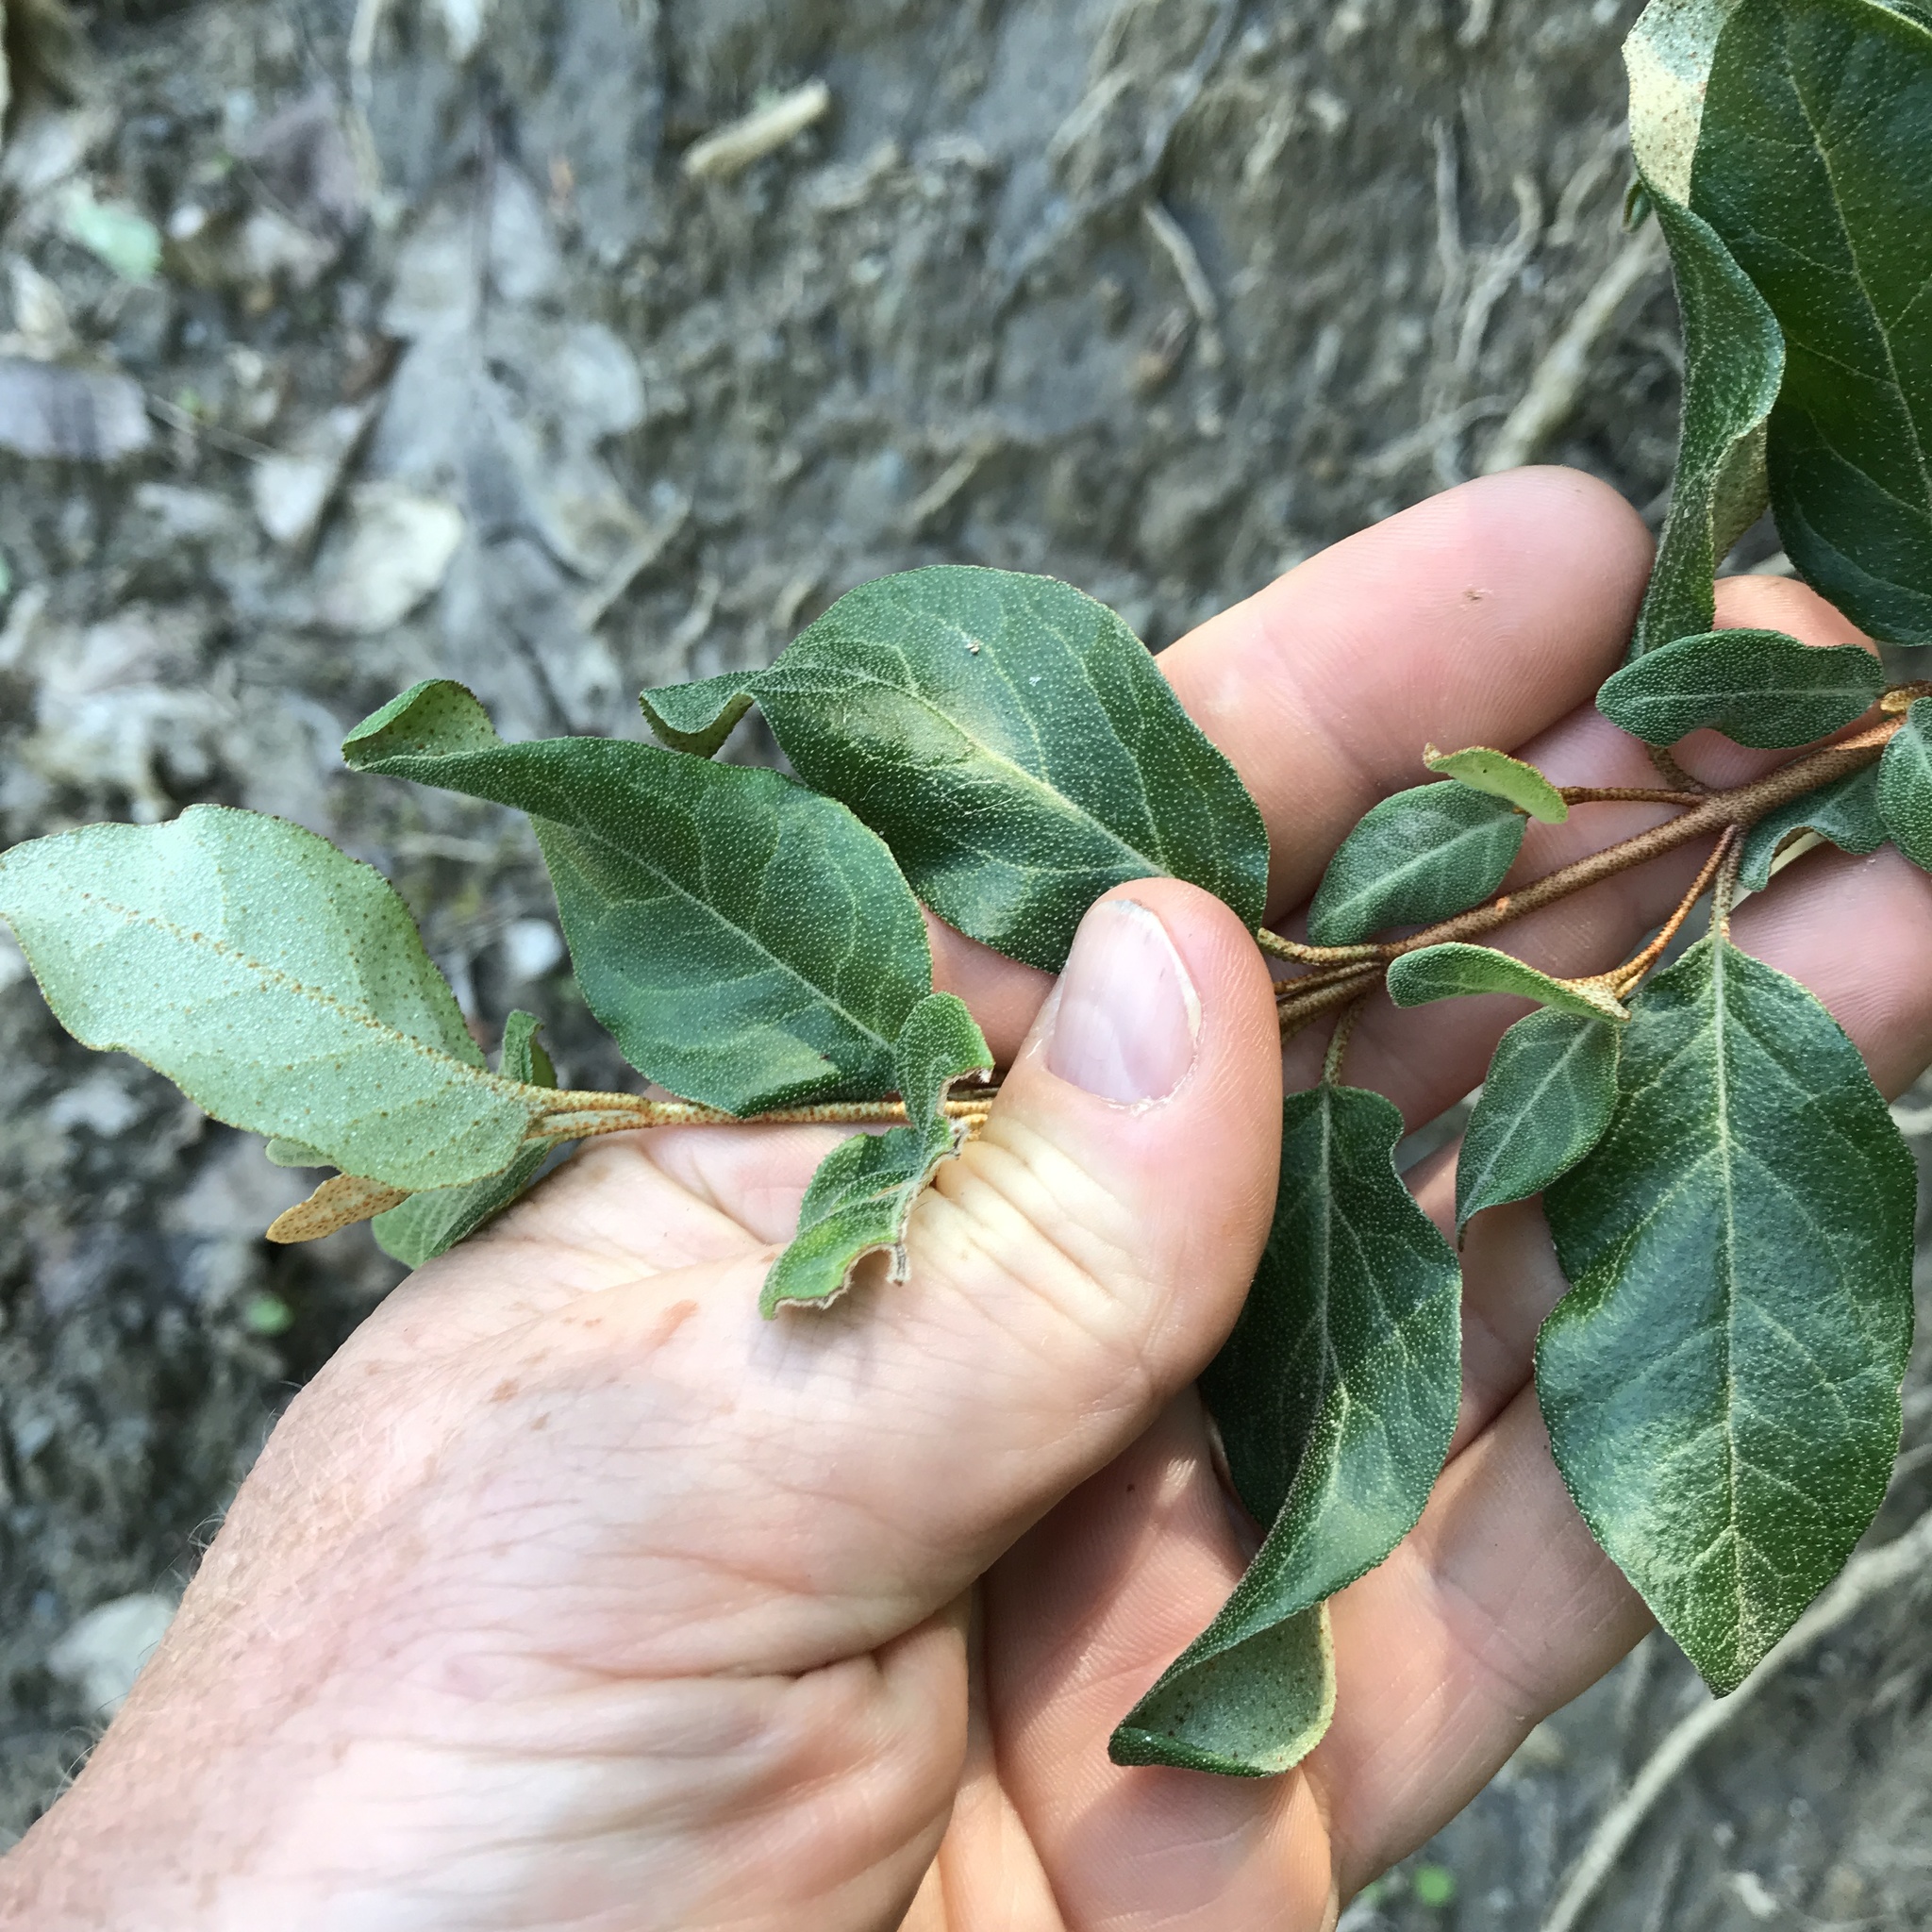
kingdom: Plantae
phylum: Tracheophyta
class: Magnoliopsida
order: Rosales
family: Elaeagnaceae
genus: Shepherdia
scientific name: Shepherdia canadensis
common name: Soapberry
